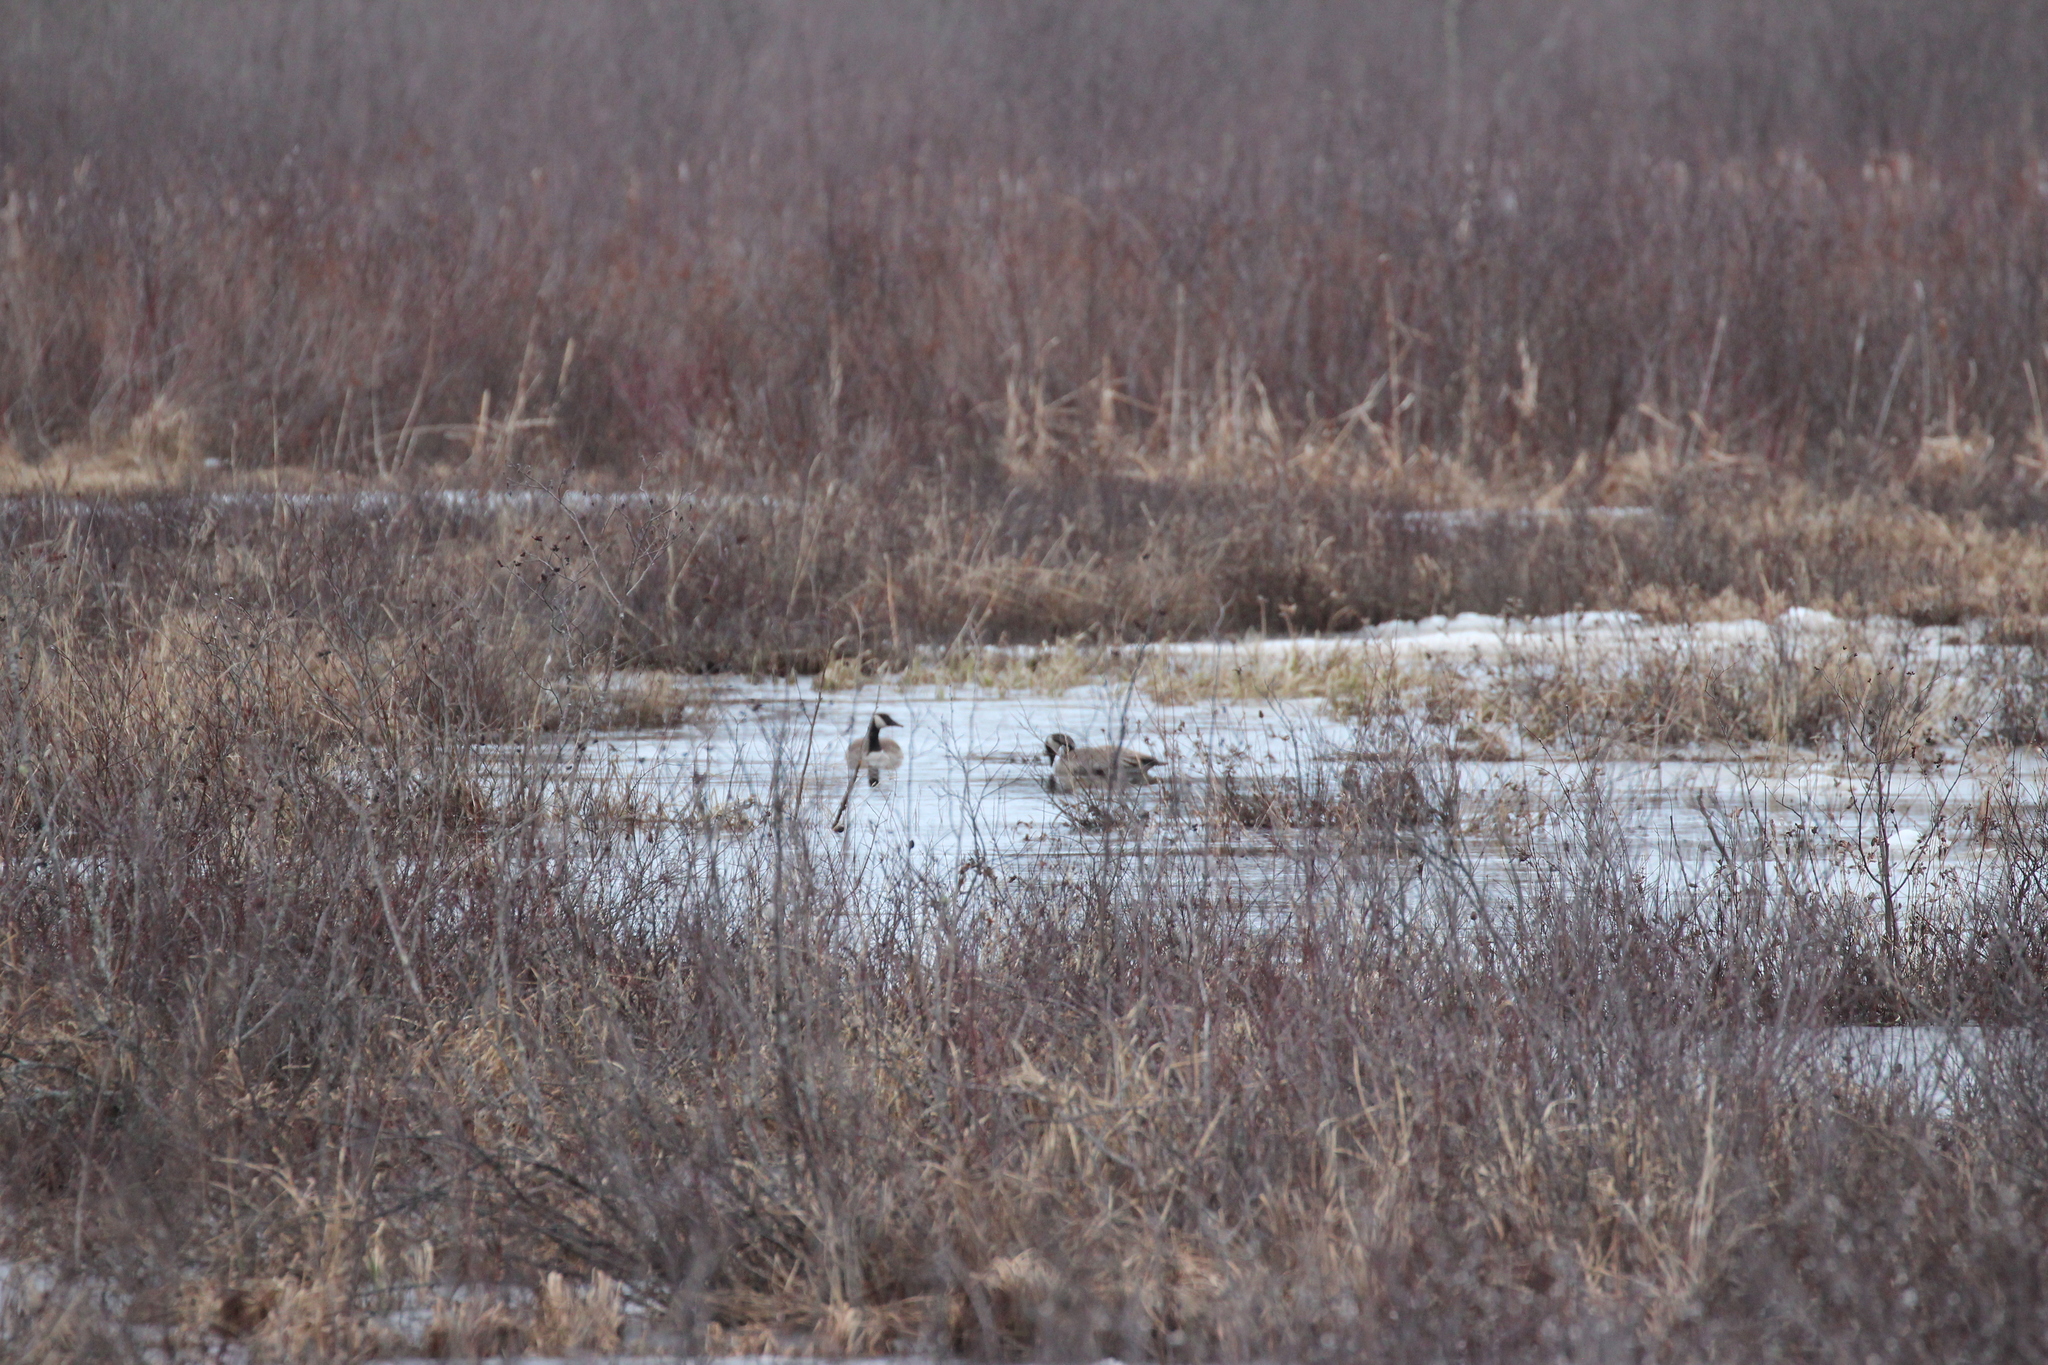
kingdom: Animalia
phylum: Chordata
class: Aves
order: Anseriformes
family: Anatidae
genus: Branta
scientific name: Branta canadensis
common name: Canada goose
